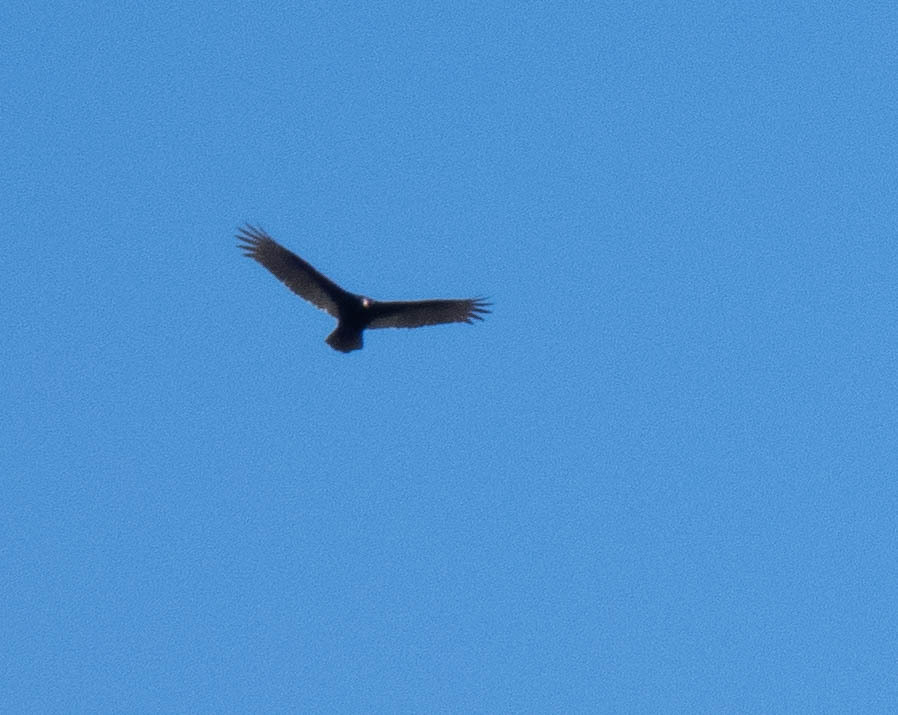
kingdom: Animalia
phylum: Chordata
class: Aves
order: Accipitriformes
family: Cathartidae
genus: Cathartes
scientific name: Cathartes aura
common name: Turkey vulture
